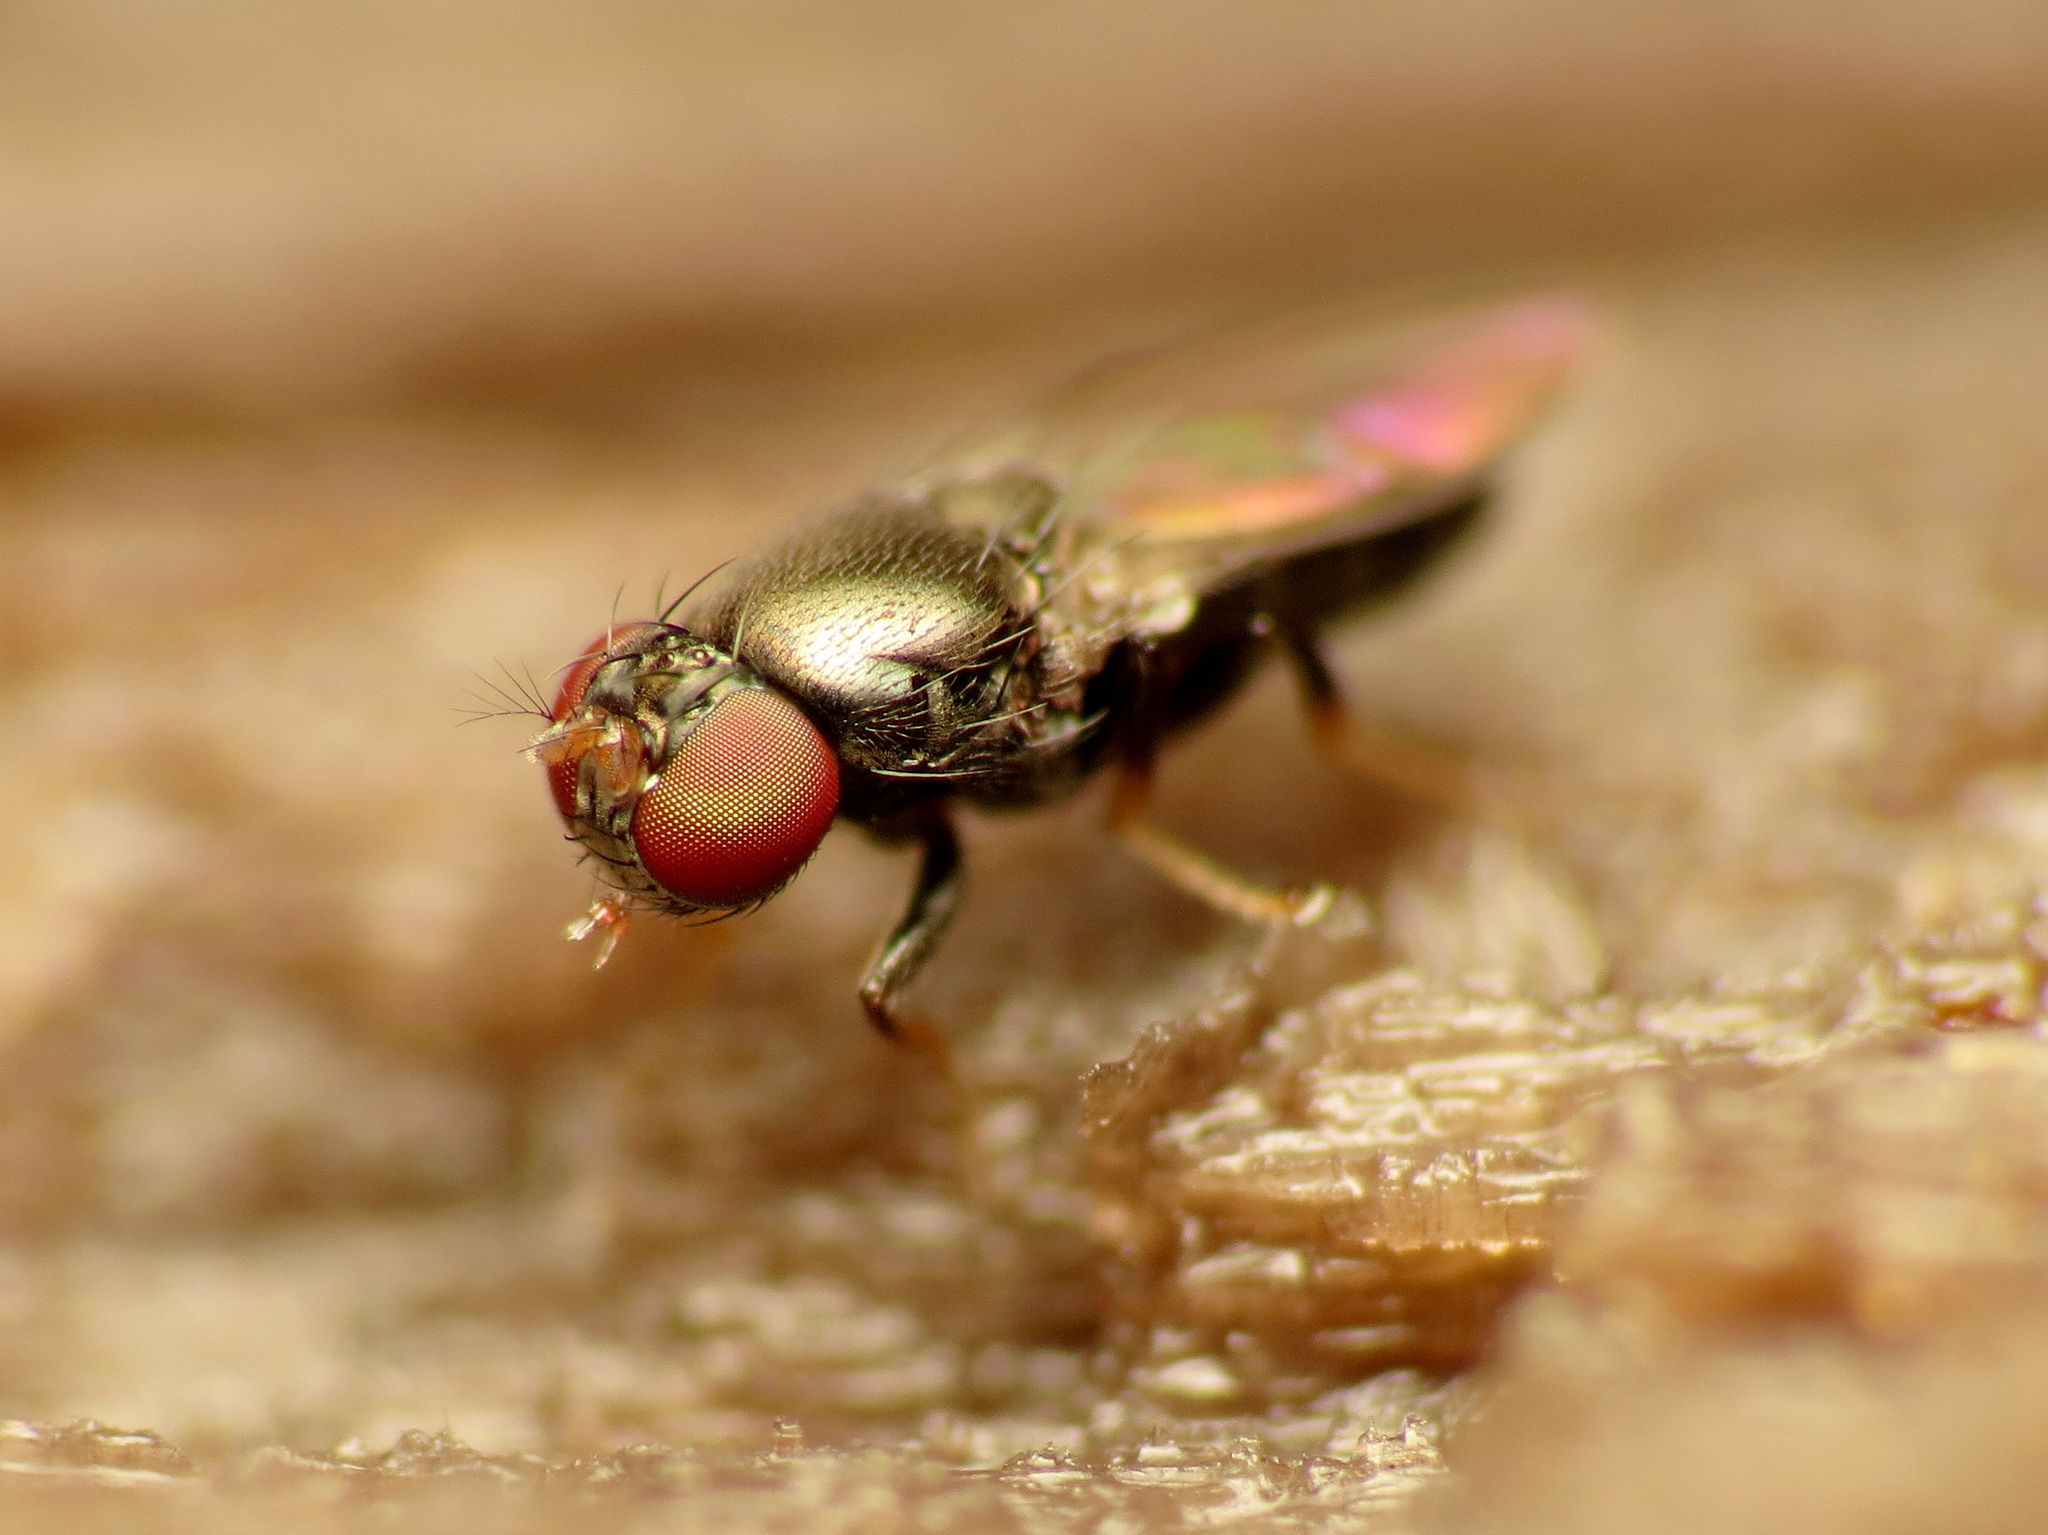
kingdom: Animalia
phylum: Arthropoda
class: Insecta
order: Diptera
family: Ephydridae
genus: Lamproclasiopa
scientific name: Lamproclasiopa brunneonitens
